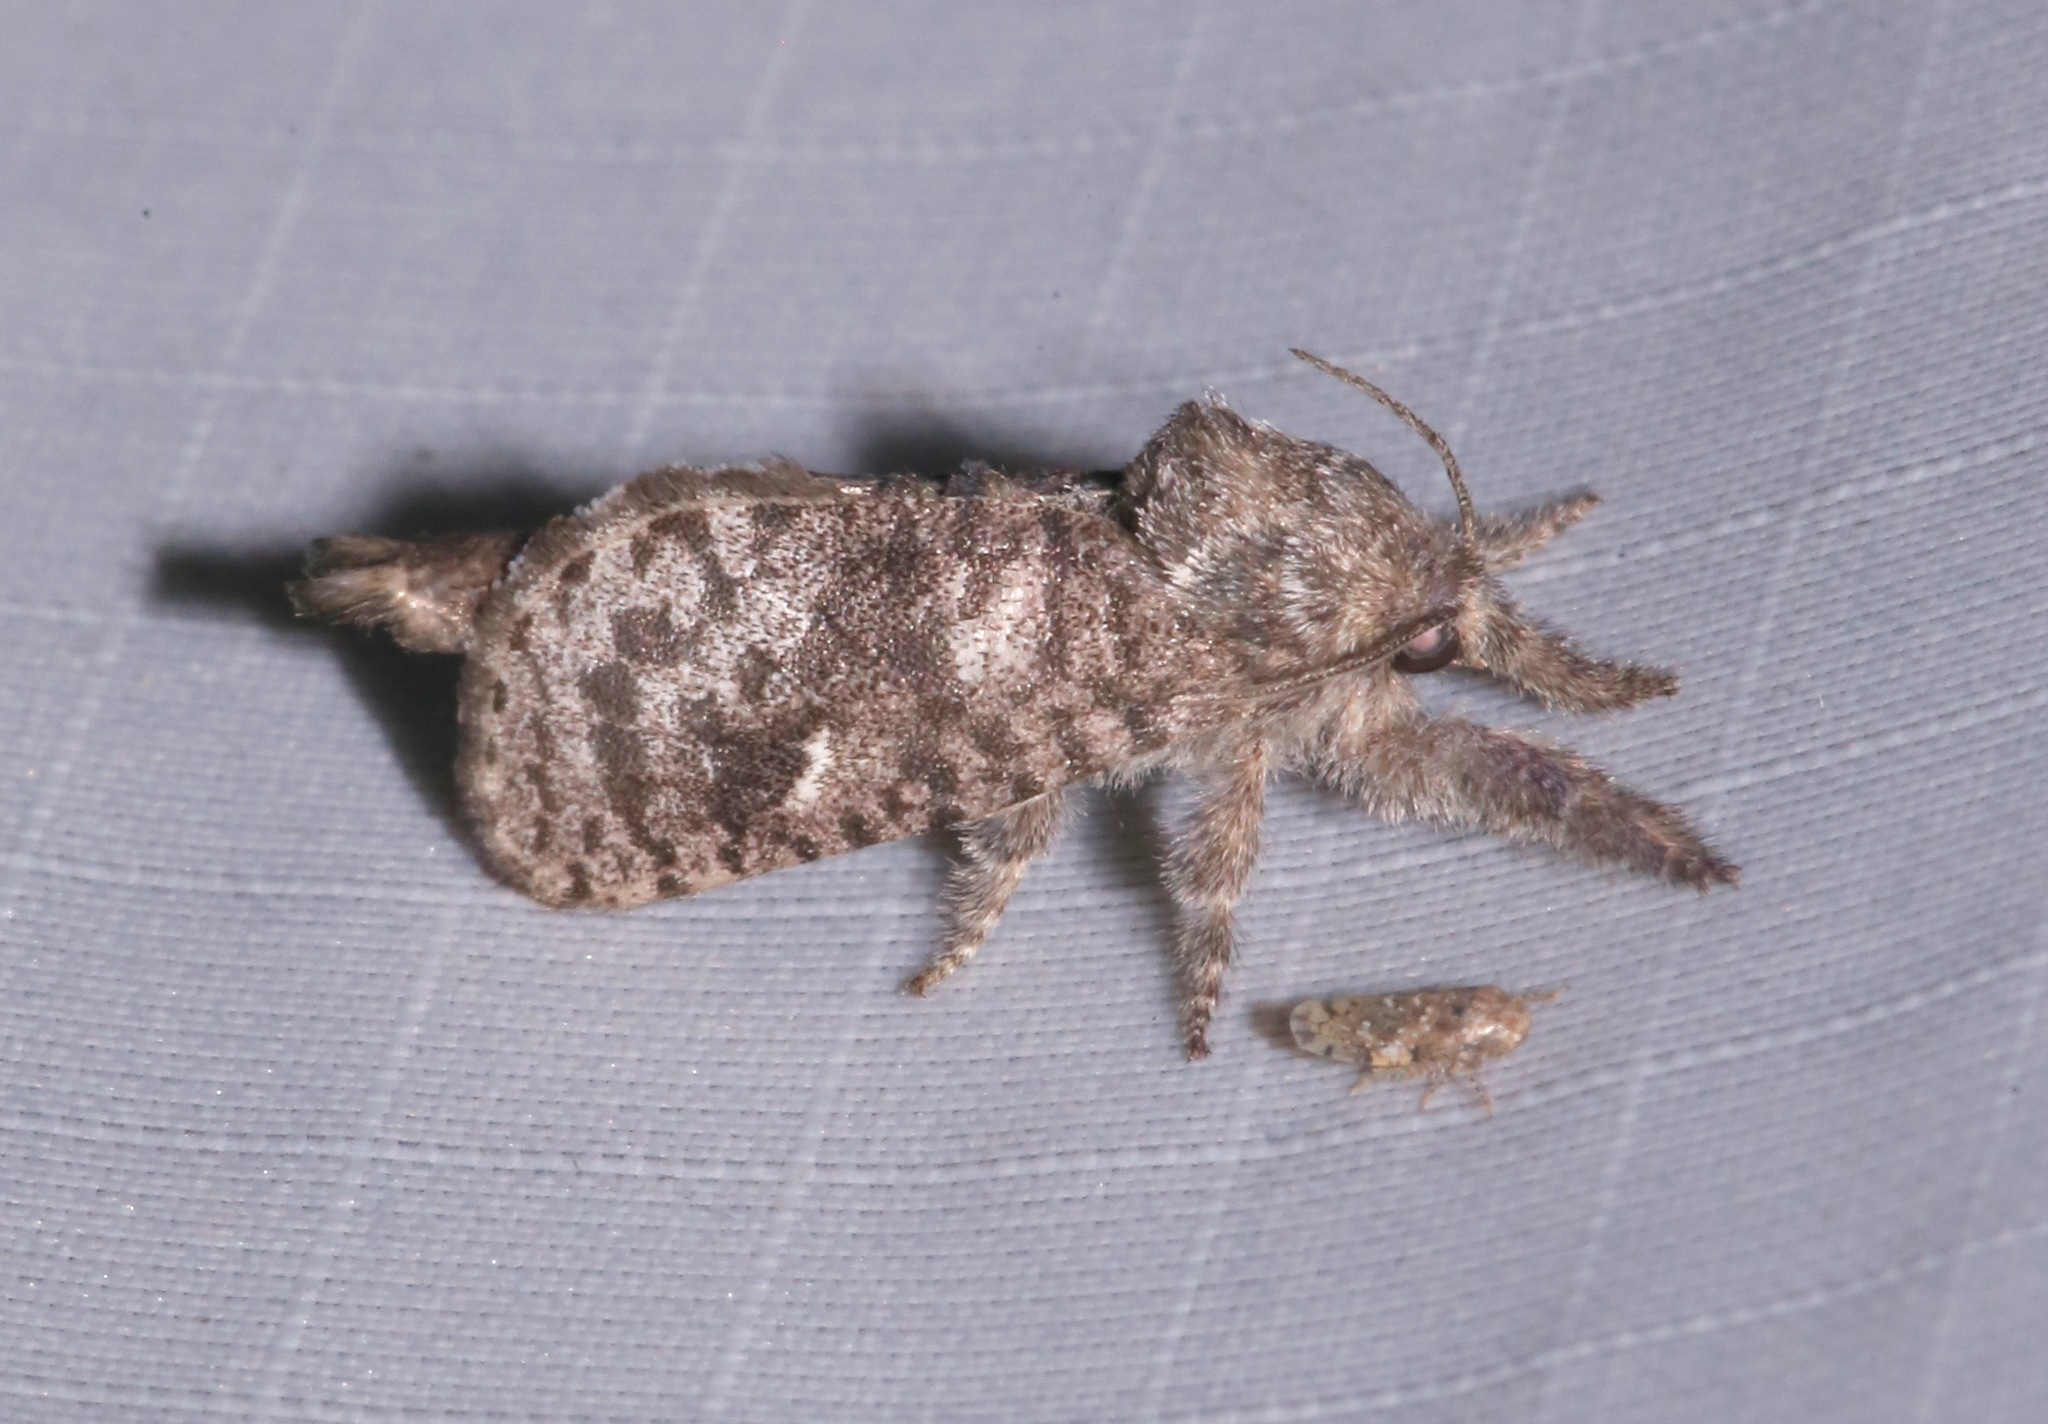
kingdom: Animalia
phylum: Arthropoda
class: Insecta
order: Lepidoptera
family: Cossidae
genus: Givira
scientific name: Givira francesca
